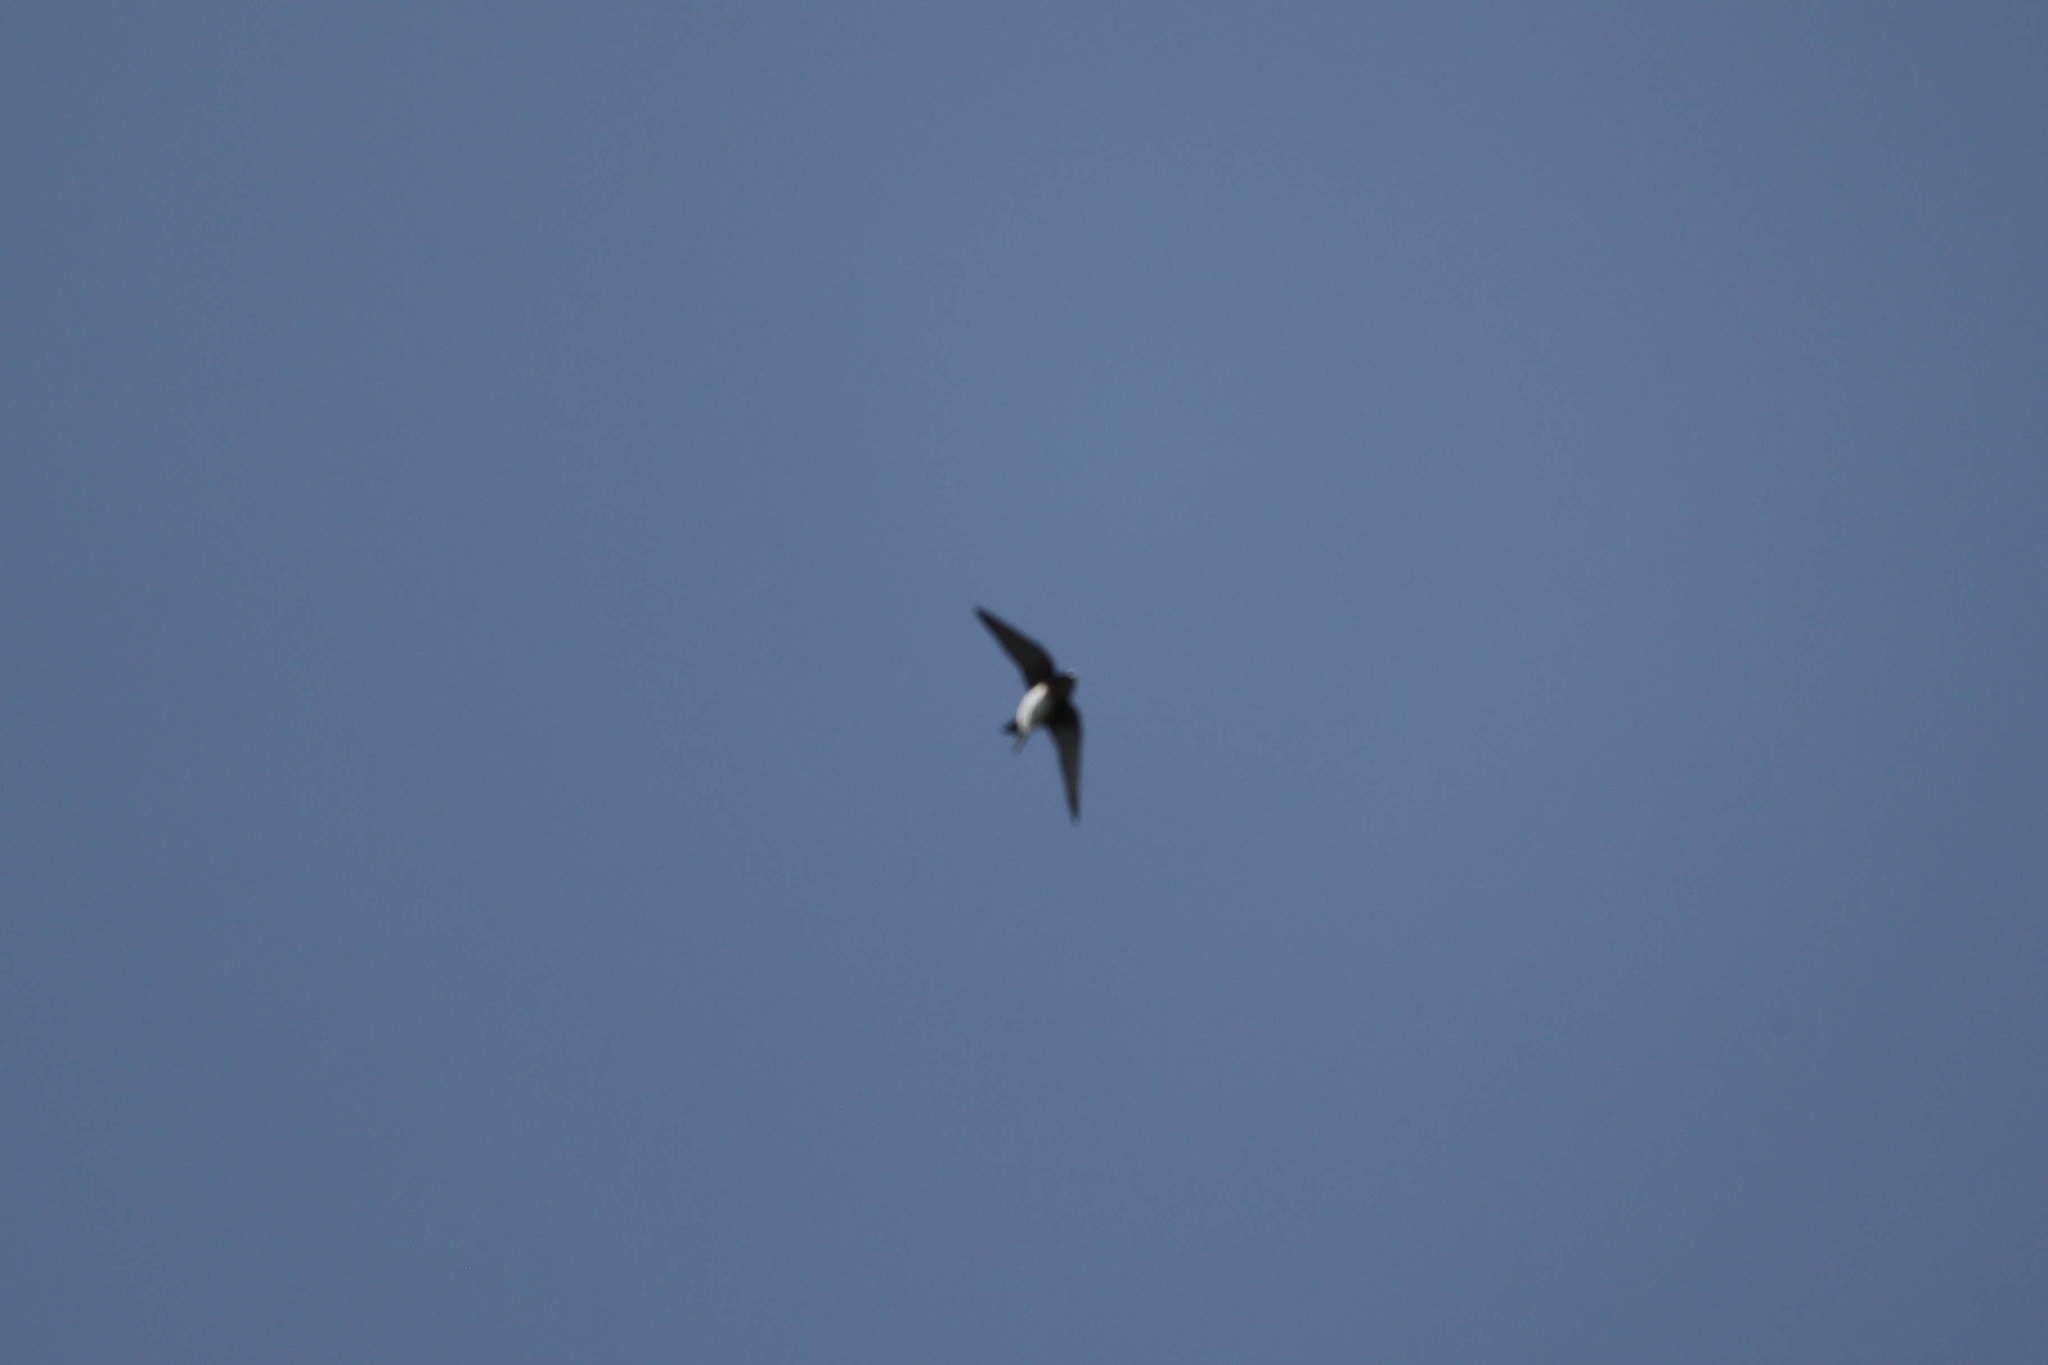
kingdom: Animalia
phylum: Chordata
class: Aves
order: Passeriformes
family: Hirundinidae
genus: Progne
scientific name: Progne dominicensis
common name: Caribbean martin
